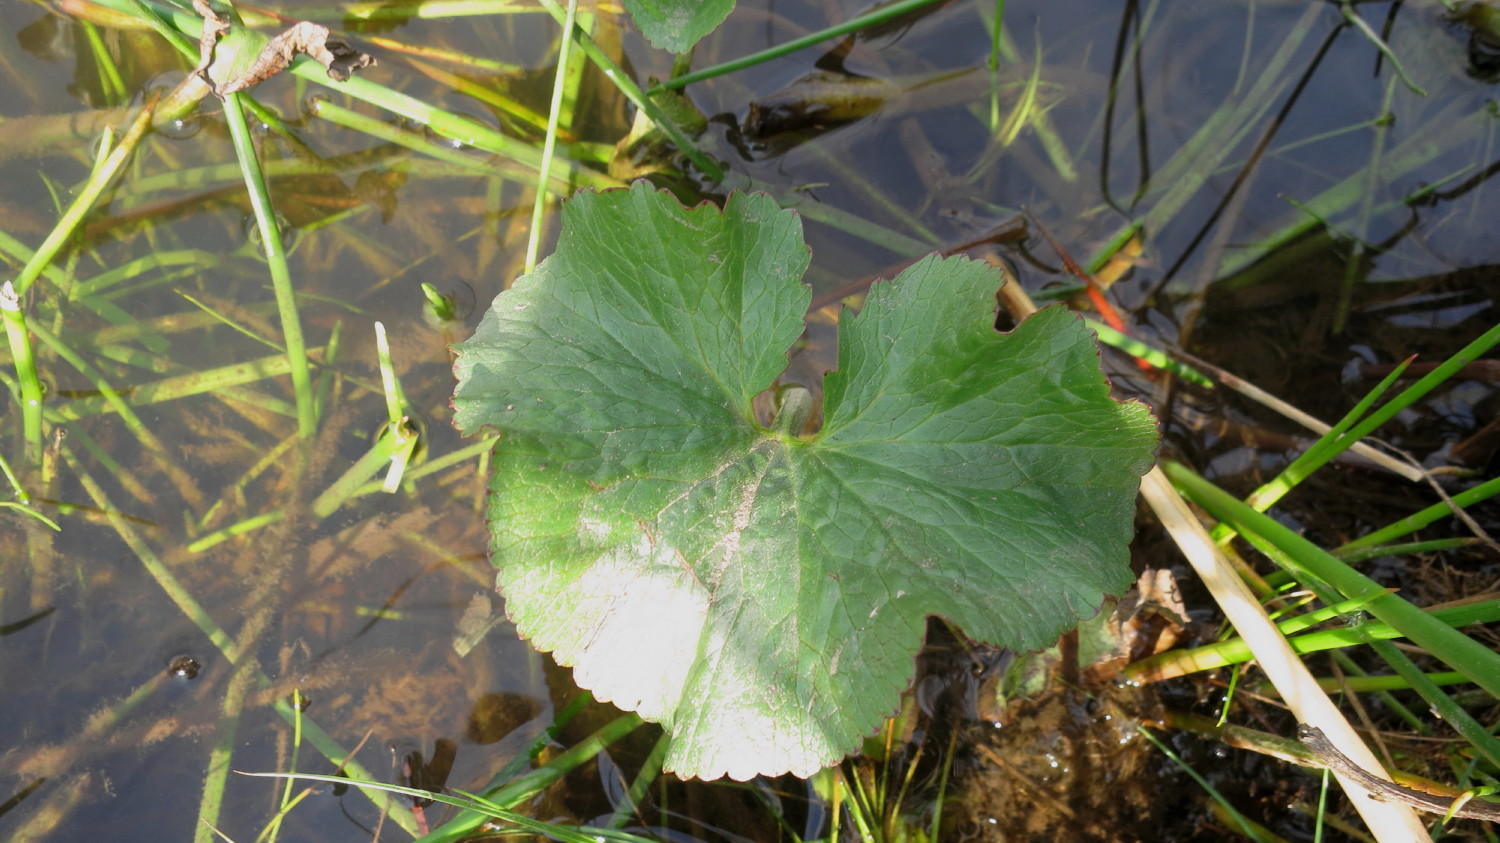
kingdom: Plantae
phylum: Tracheophyta
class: Magnoliopsida
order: Gunnerales
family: Gunneraceae
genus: Gunnera
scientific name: Gunnera perpensa
